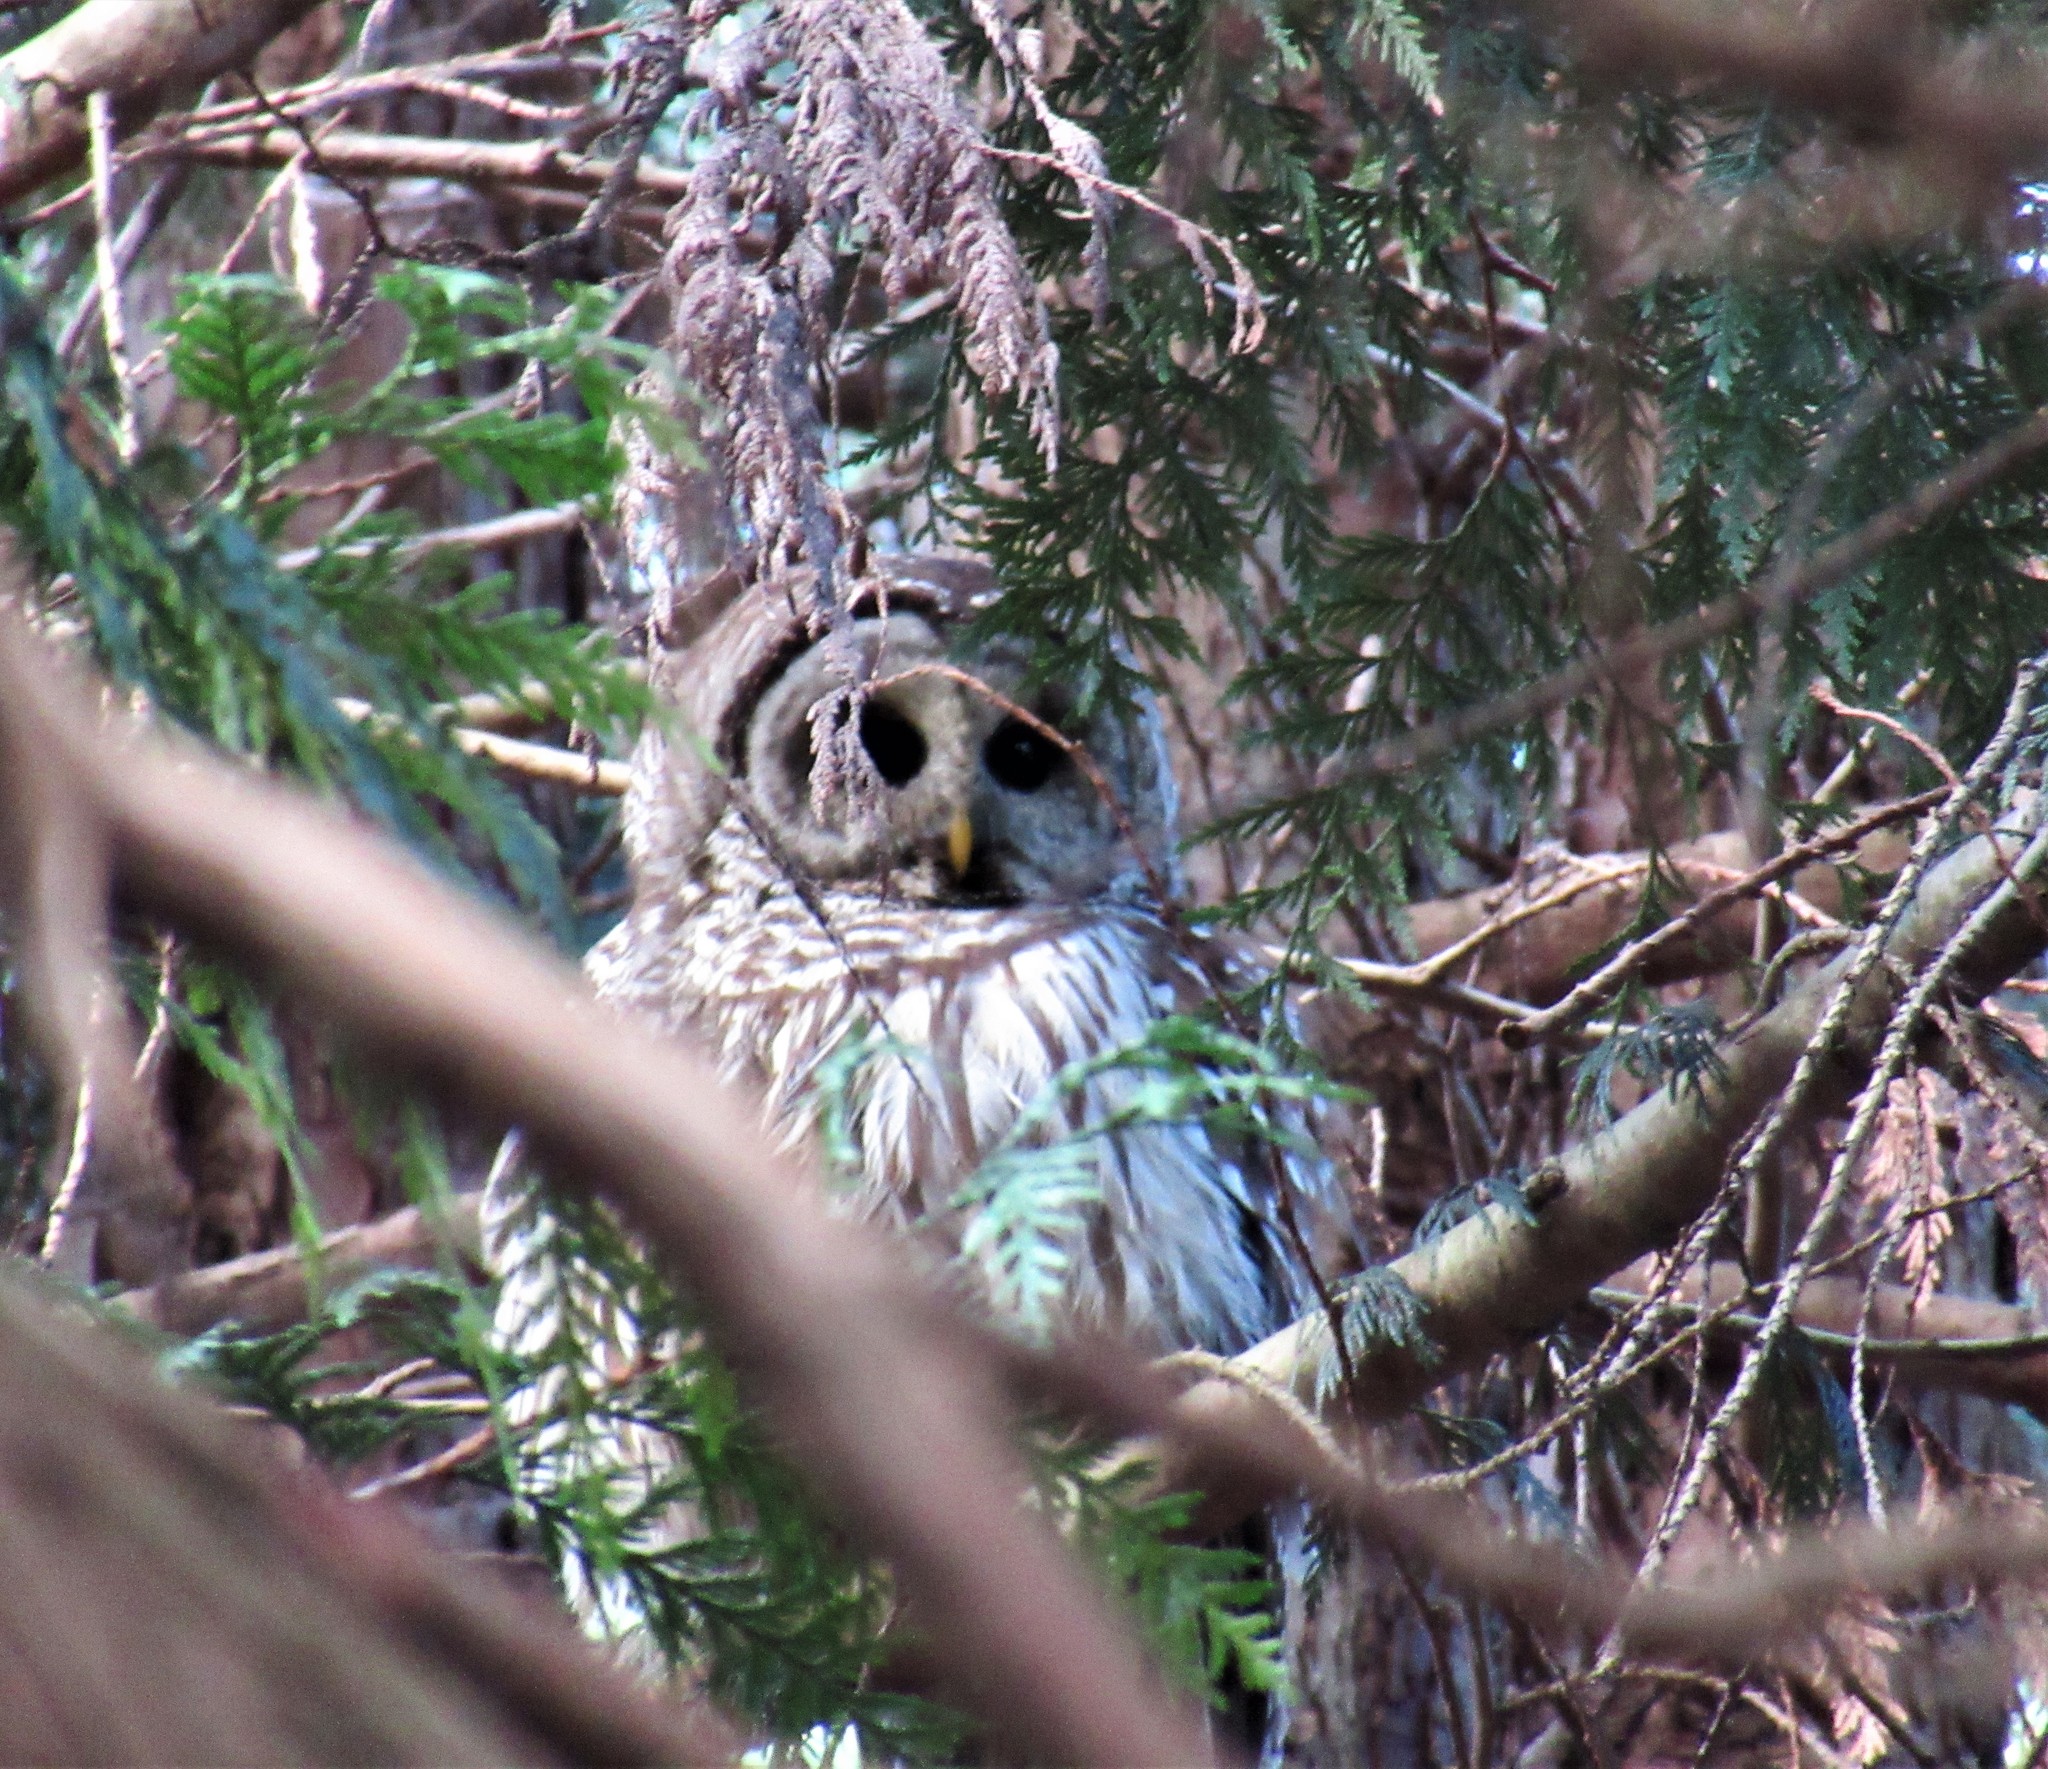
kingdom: Animalia
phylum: Chordata
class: Aves
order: Strigiformes
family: Strigidae
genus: Strix
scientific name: Strix varia
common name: Barred owl
